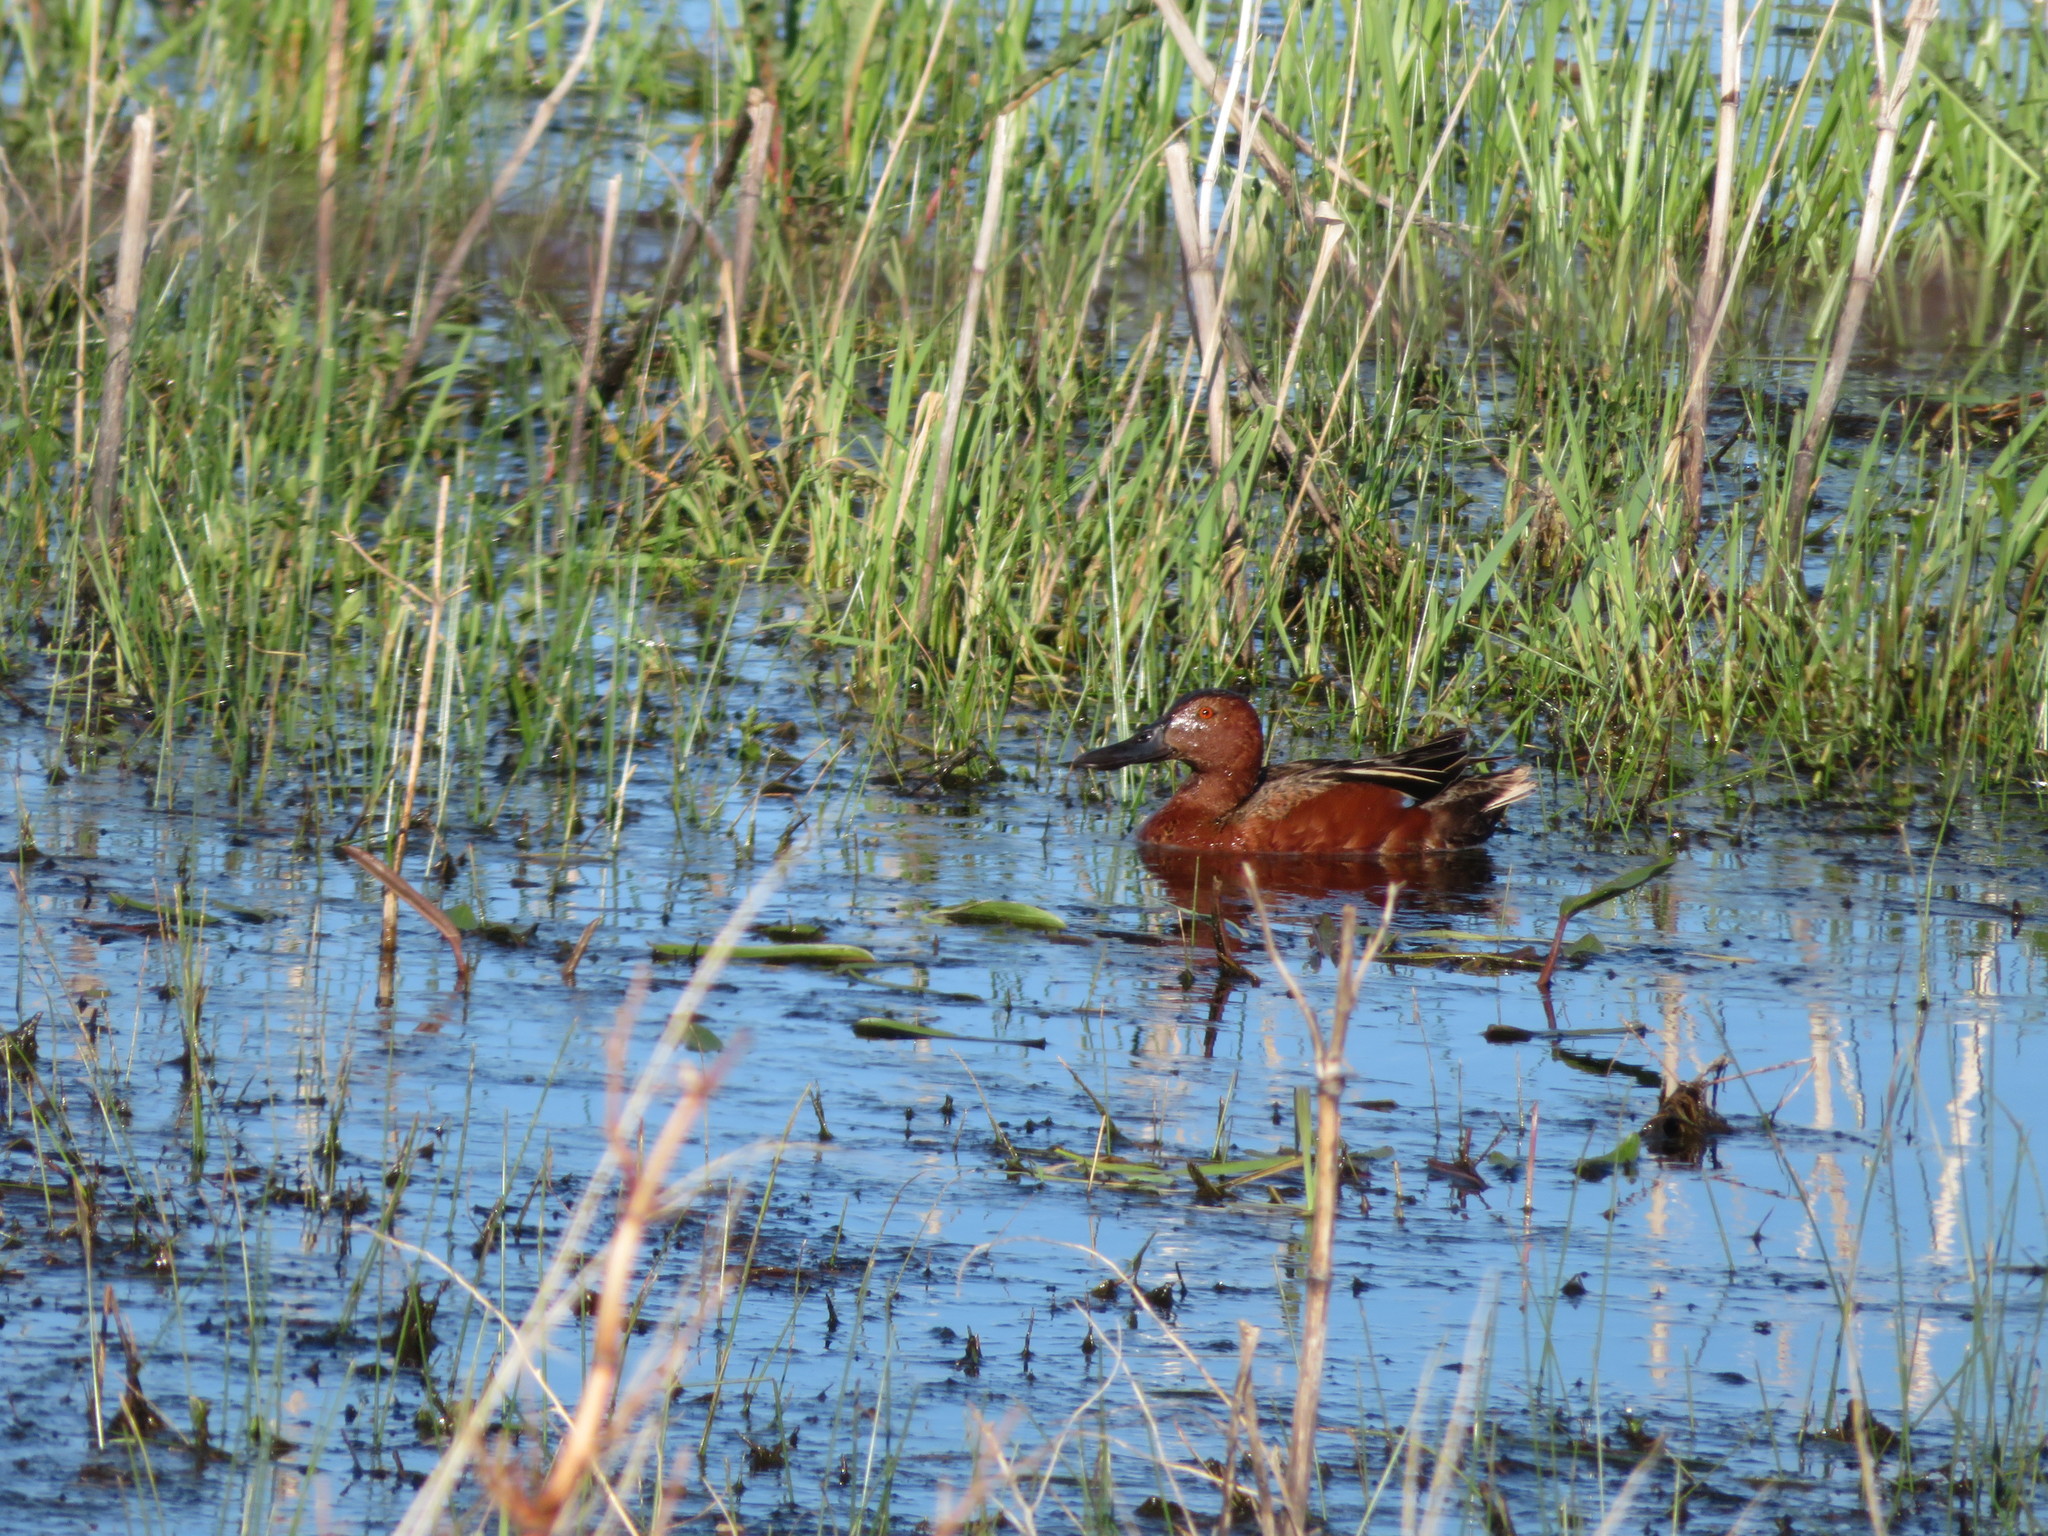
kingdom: Animalia
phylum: Chordata
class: Aves
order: Anseriformes
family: Anatidae
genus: Spatula
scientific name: Spatula cyanoptera
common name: Cinnamon teal
